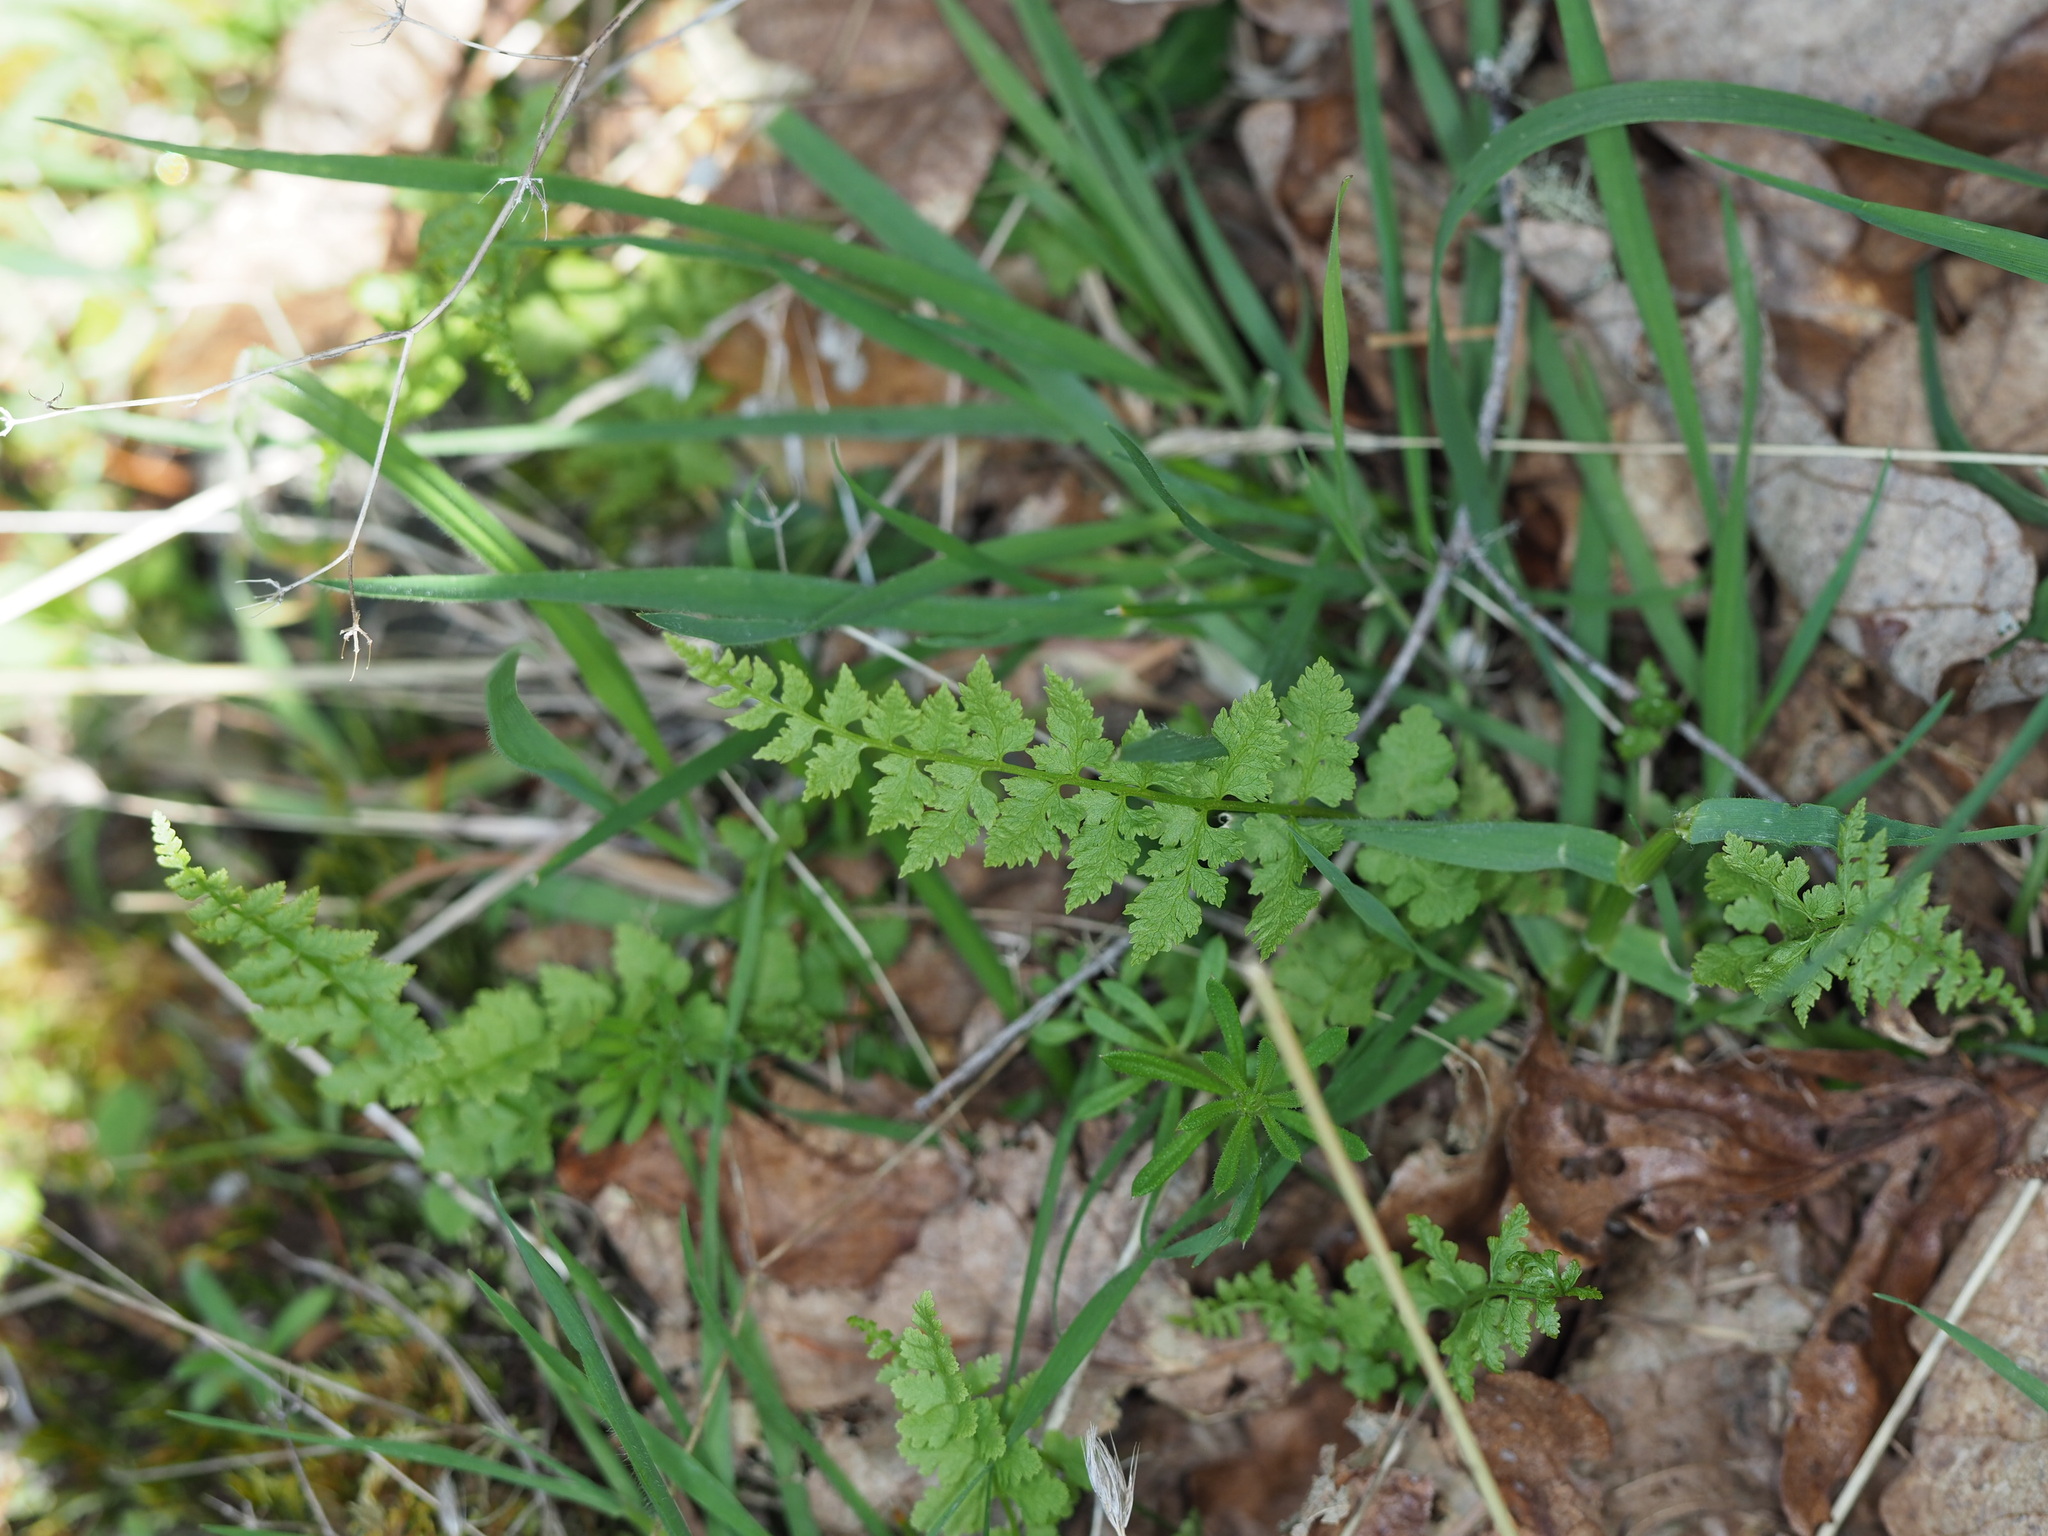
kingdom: Plantae
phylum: Tracheophyta
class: Polypodiopsida
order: Polypodiales
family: Cystopteridaceae
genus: Cystopteris
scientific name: Cystopteris fragilis
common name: Brittle bladder fern
